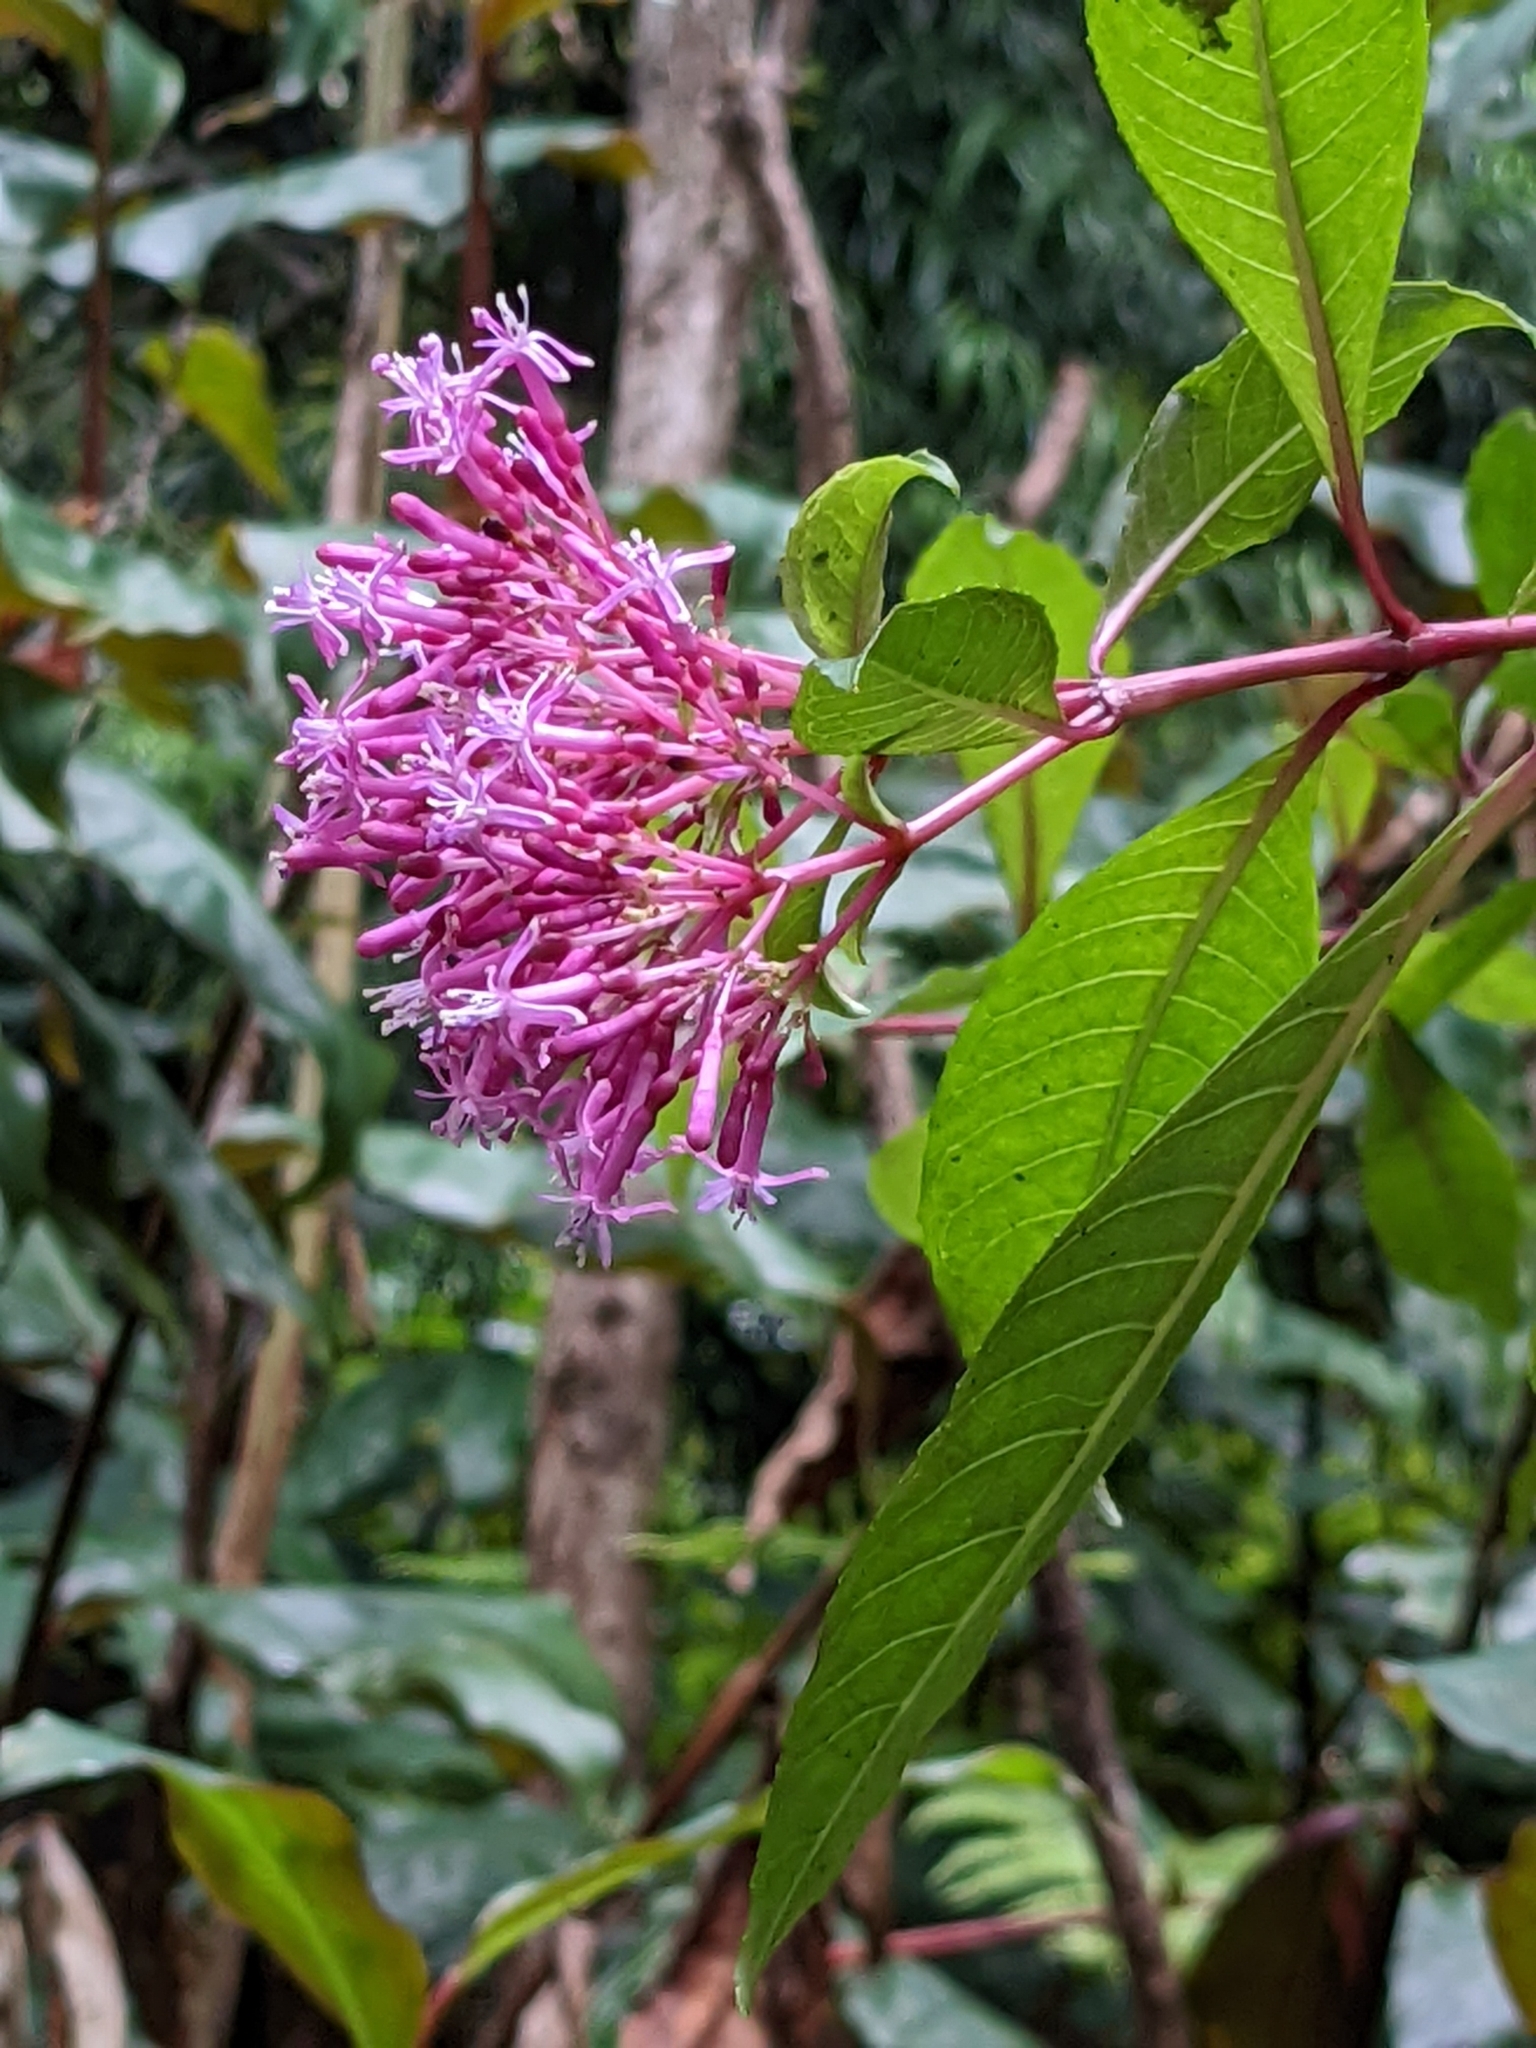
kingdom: Plantae
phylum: Tracheophyta
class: Magnoliopsida
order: Myrtales
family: Onagraceae
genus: Fuchsia
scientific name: Fuchsia paniculata
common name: Shrubby fuchsia
